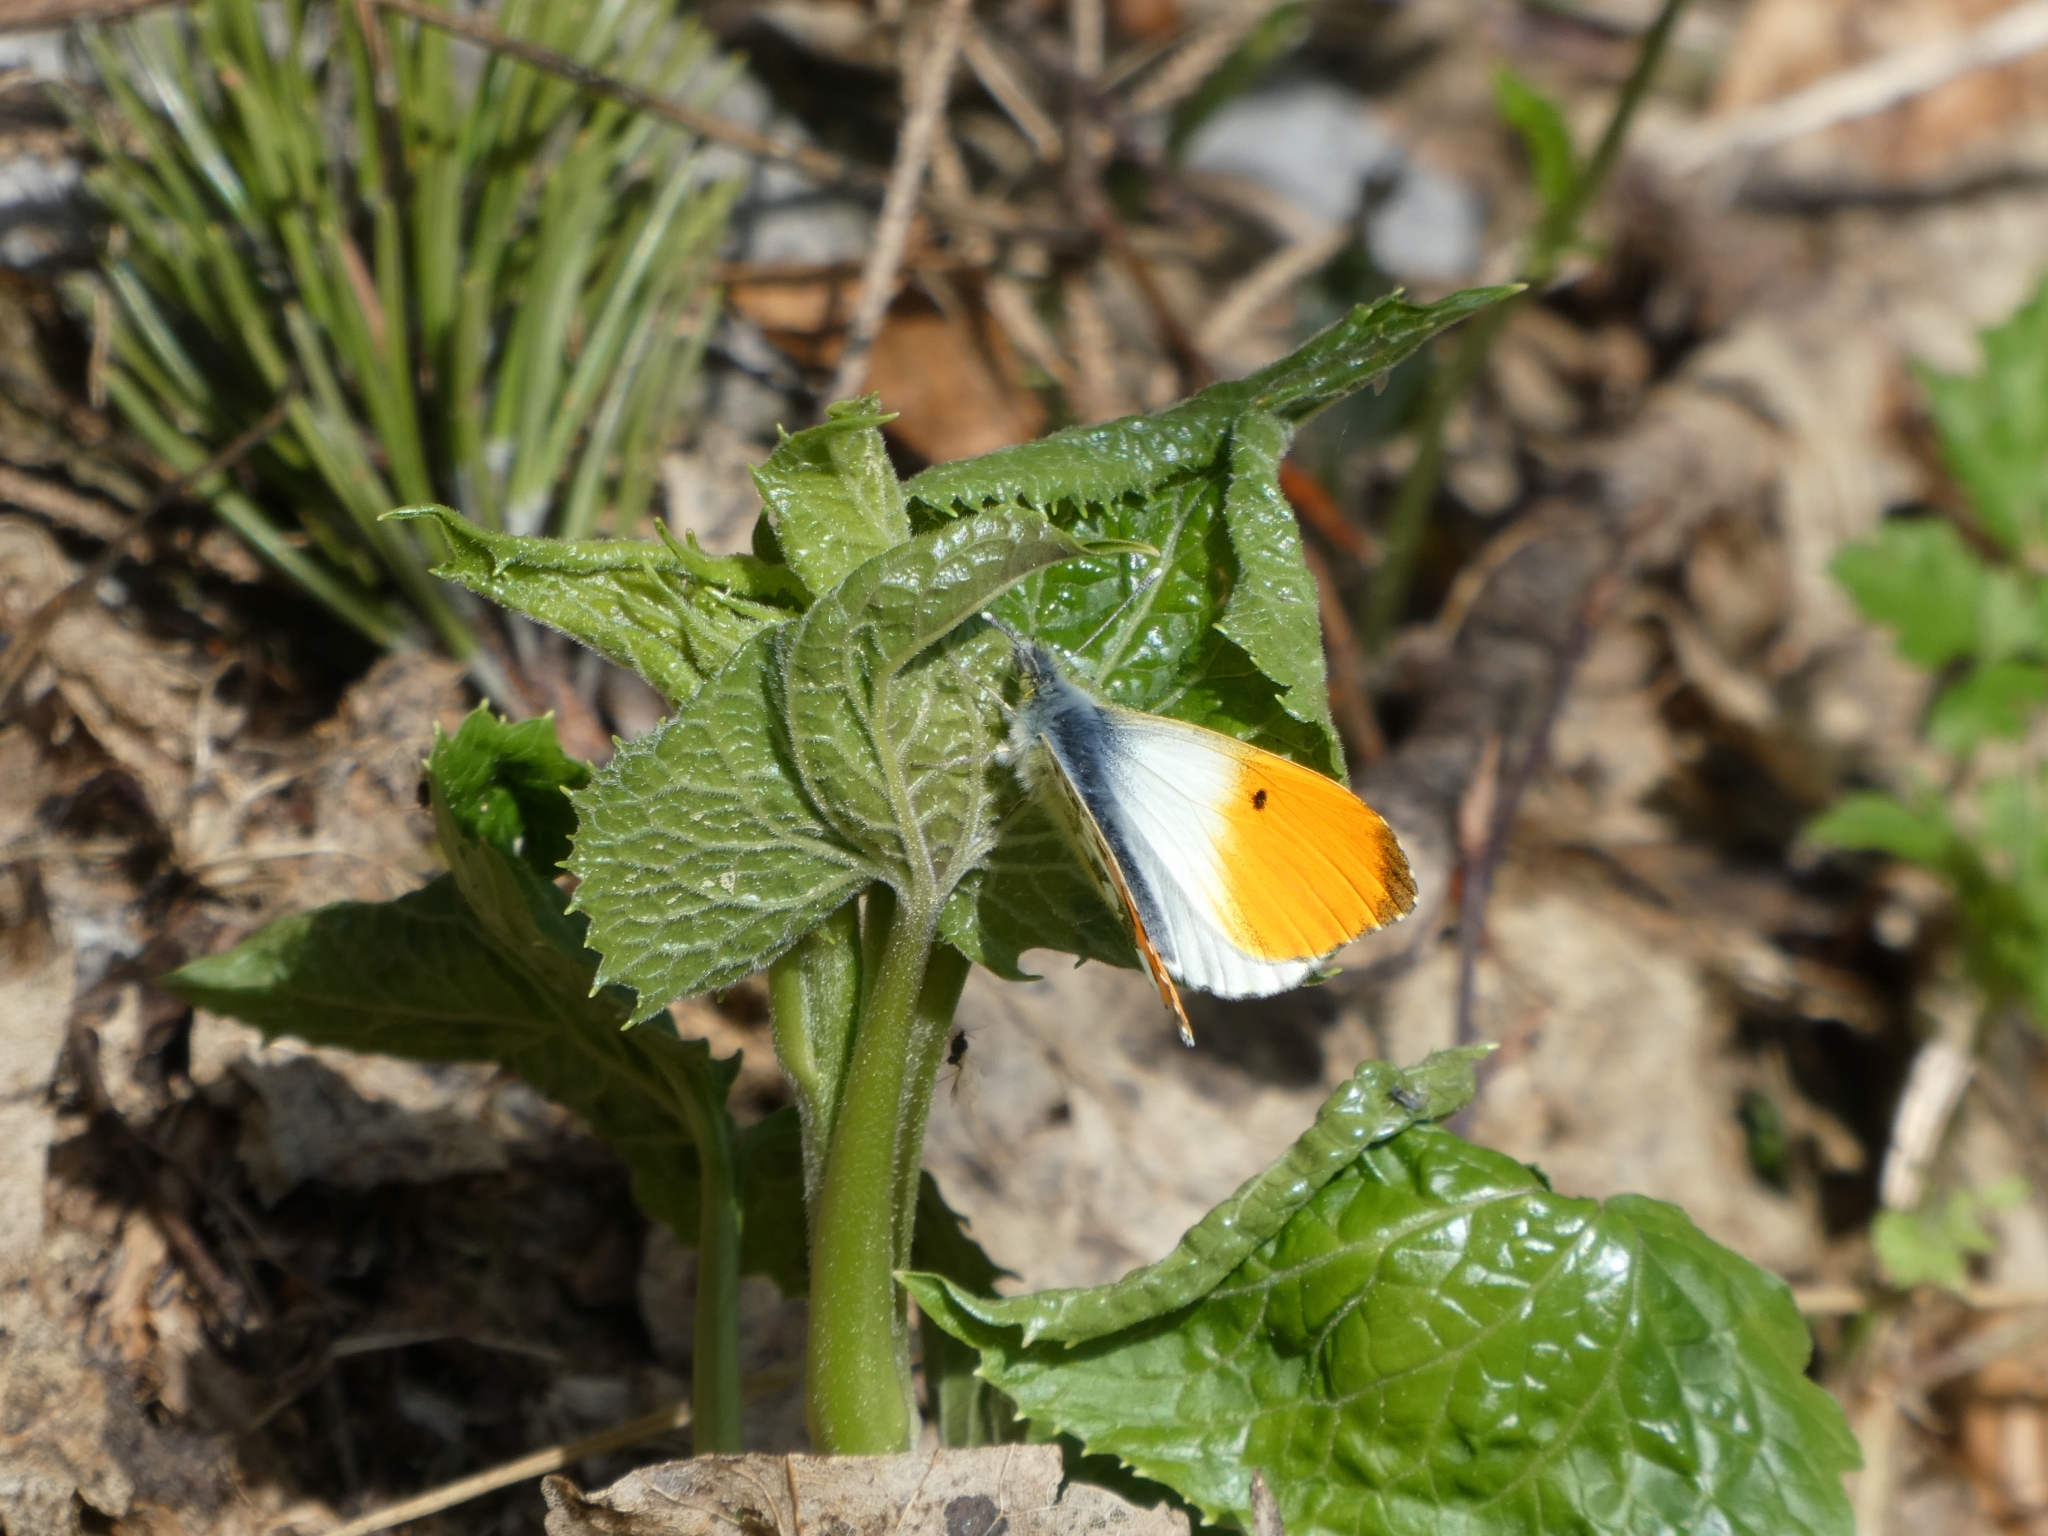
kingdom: Animalia
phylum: Arthropoda
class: Insecta
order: Lepidoptera
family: Pieridae
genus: Anthocharis
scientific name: Anthocharis cardamines
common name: Orange-tip
